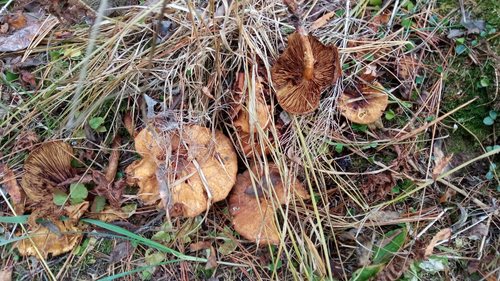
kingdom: Fungi
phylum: Basidiomycota
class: Agaricomycetes
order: Agaricales
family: Strophariaceae
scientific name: Strophariaceae
